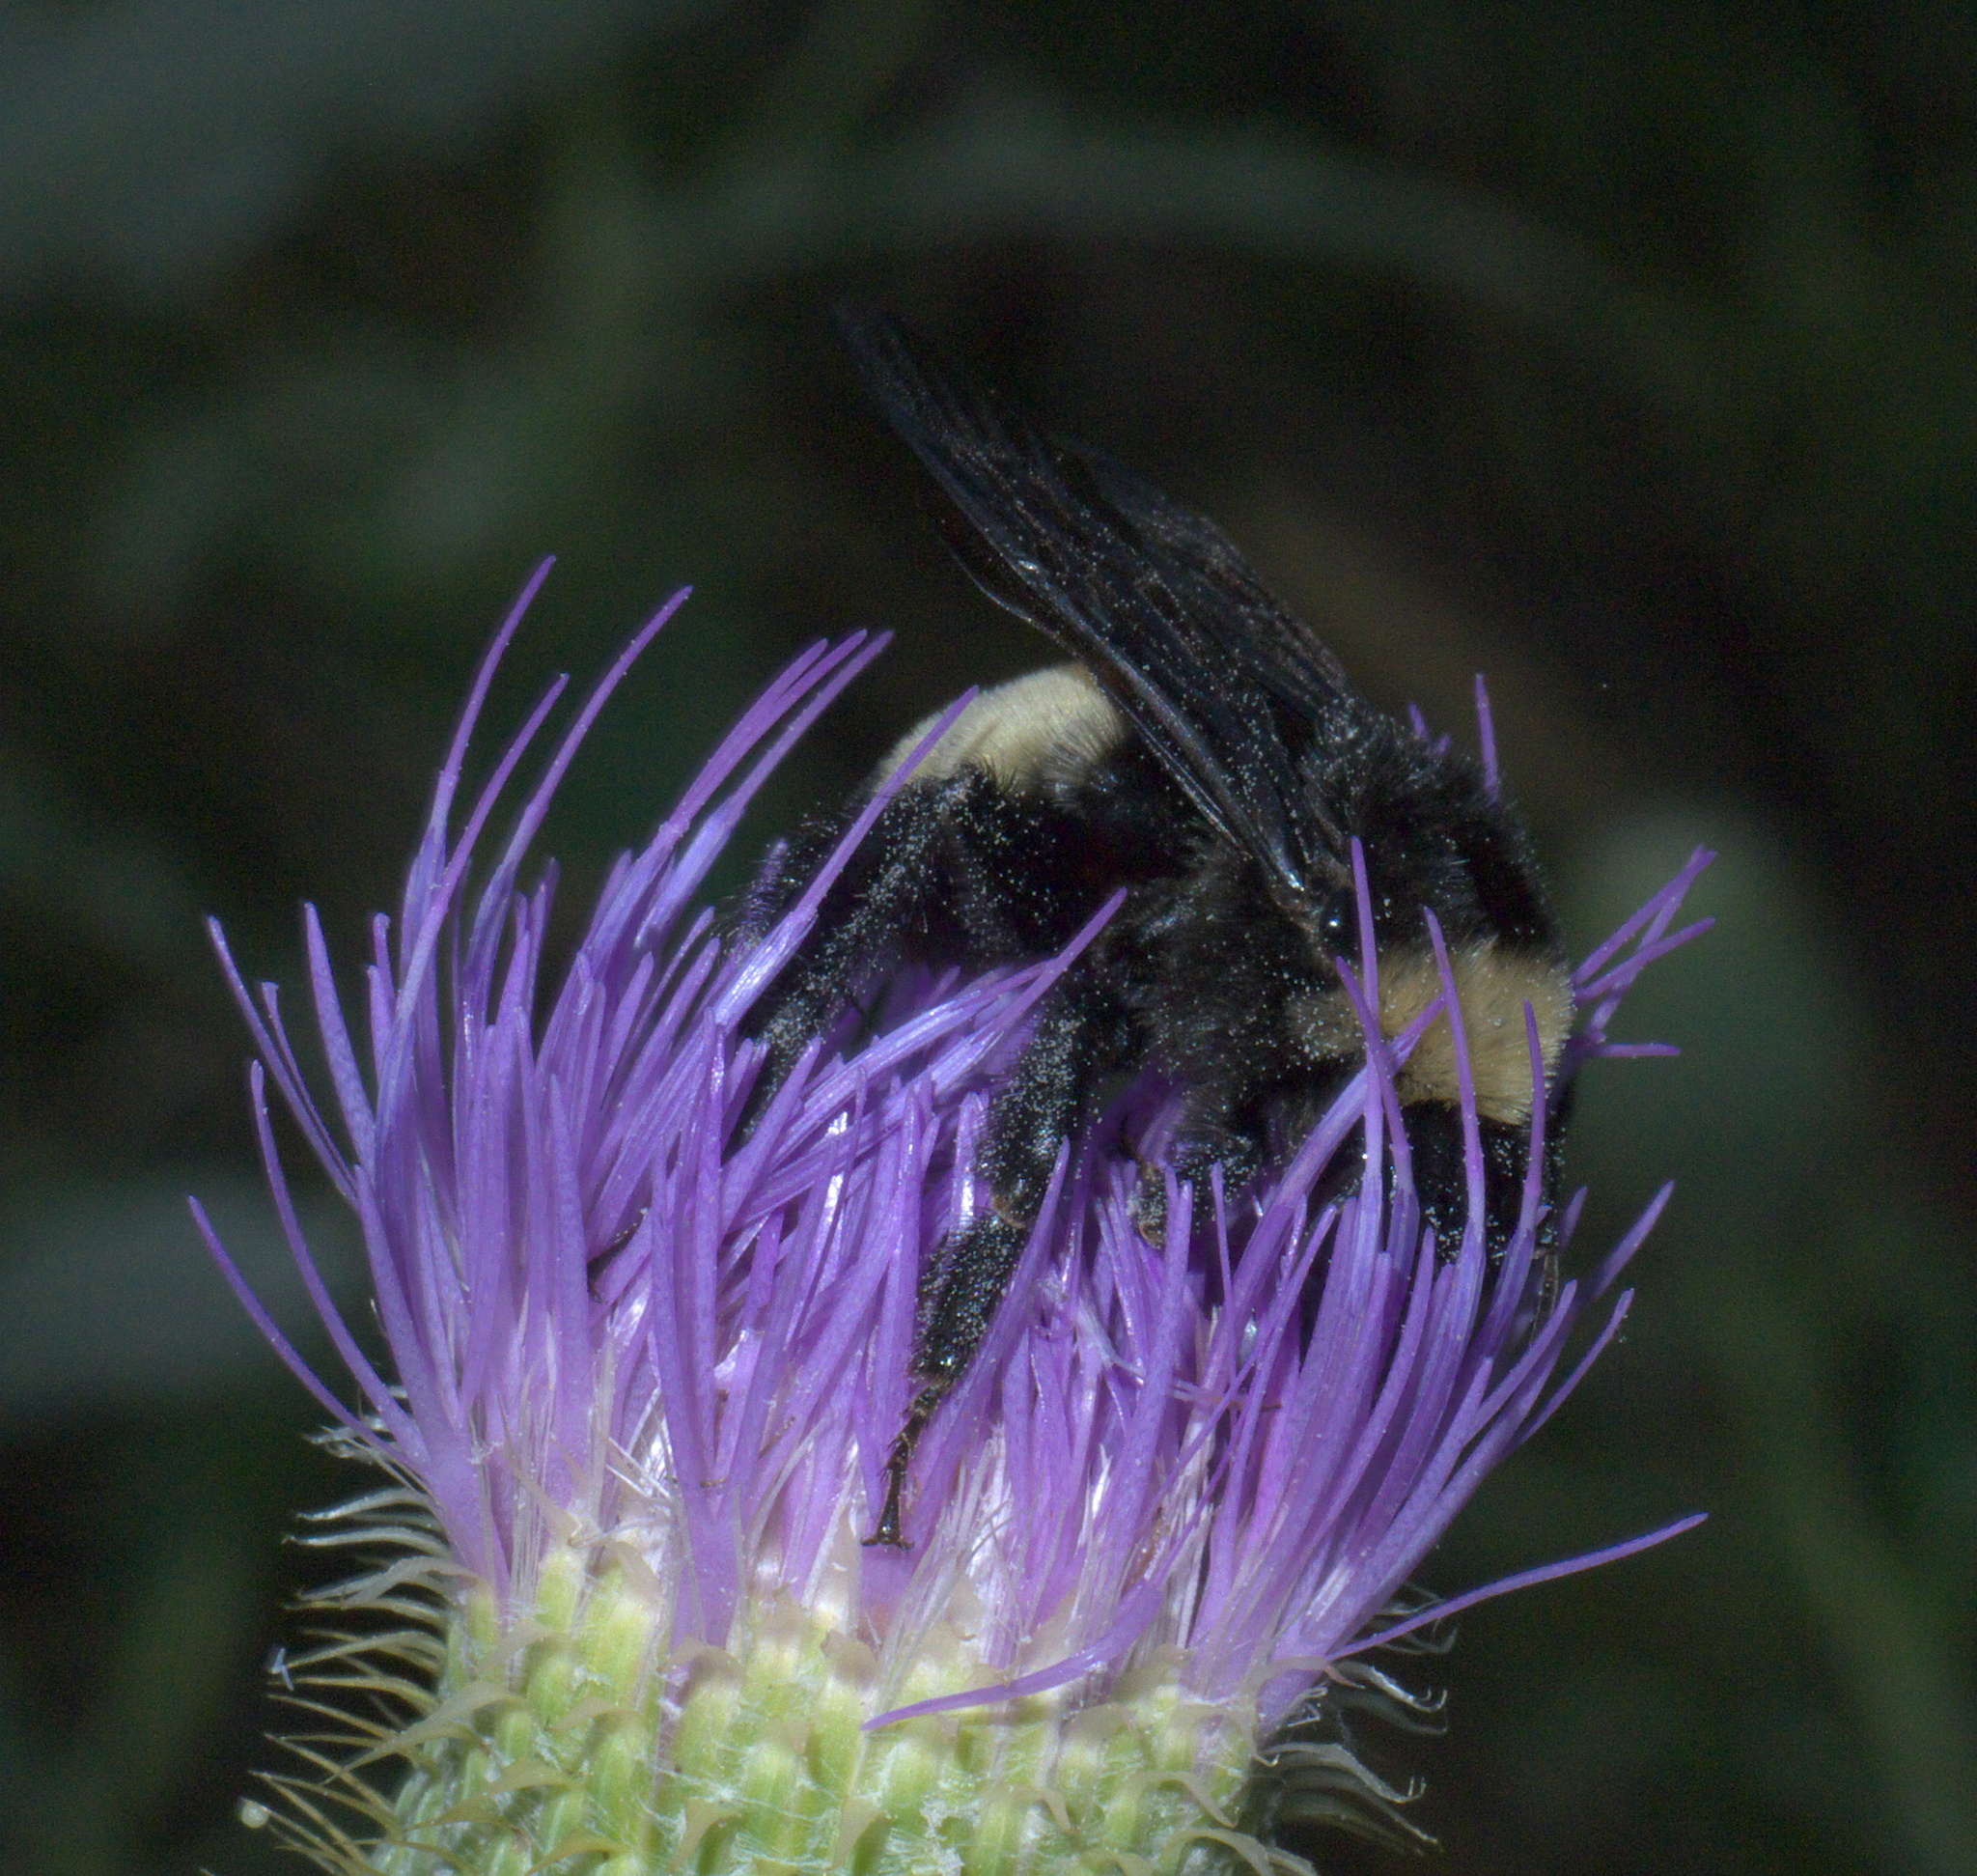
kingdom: Animalia
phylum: Arthropoda
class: Insecta
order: Hymenoptera
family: Apidae
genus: Bombus
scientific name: Bombus pensylvanicus
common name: Bumble bee
